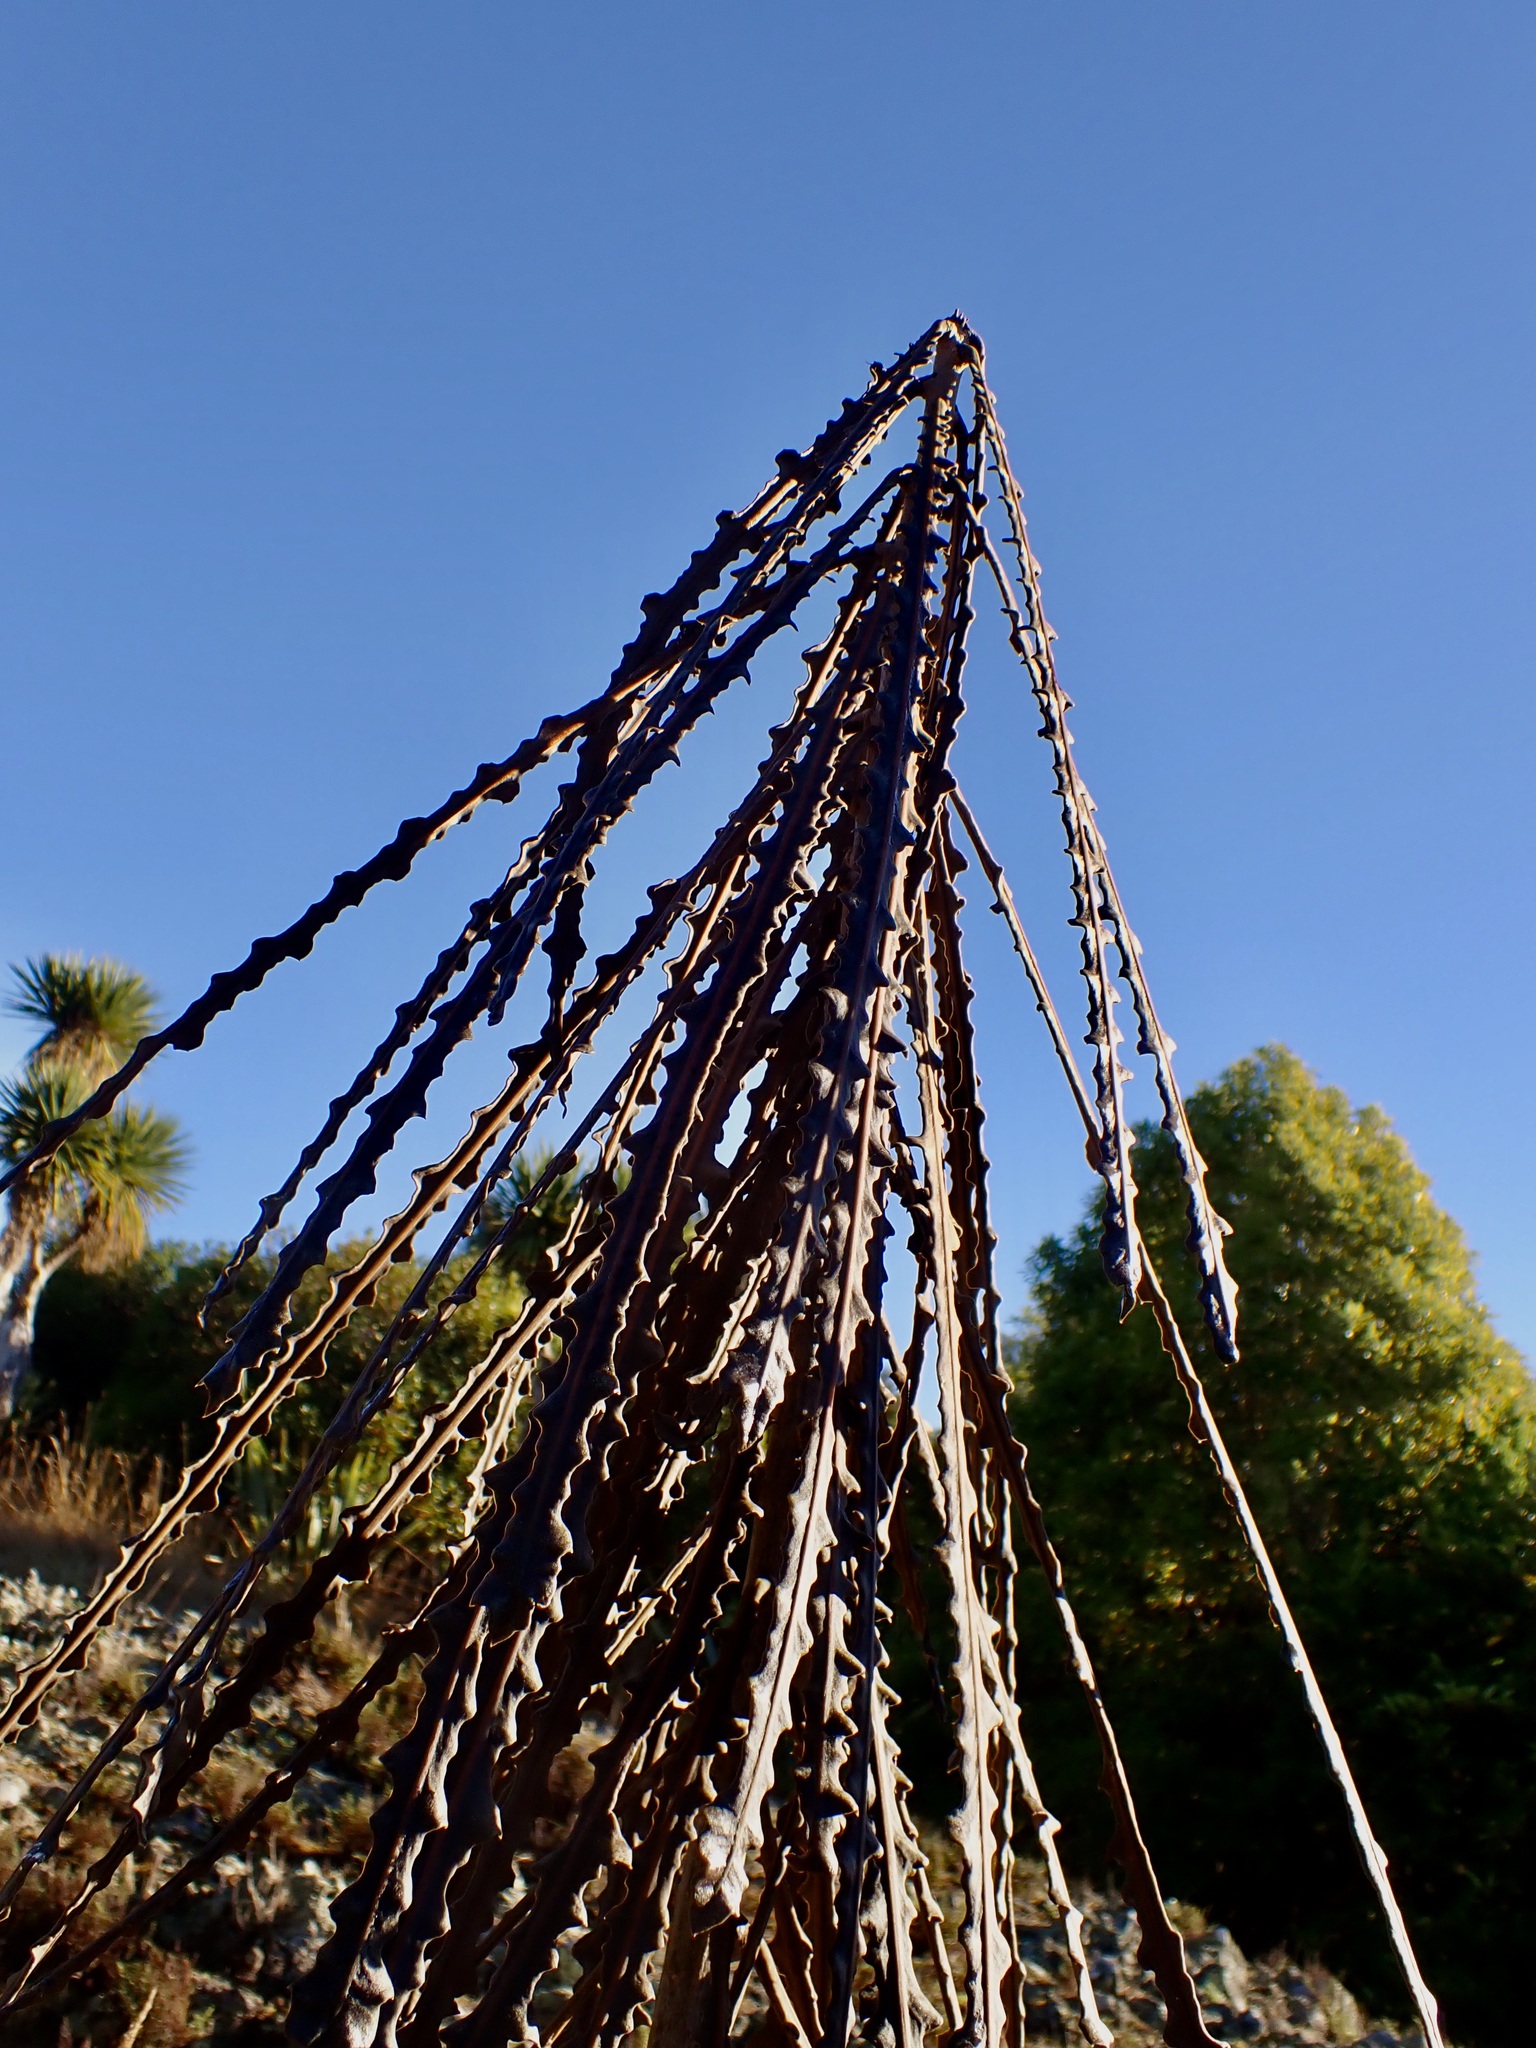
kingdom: Plantae
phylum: Tracheophyta
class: Magnoliopsida
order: Apiales
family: Araliaceae
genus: Pseudopanax
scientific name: Pseudopanax ferox
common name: Fierce lancewood
